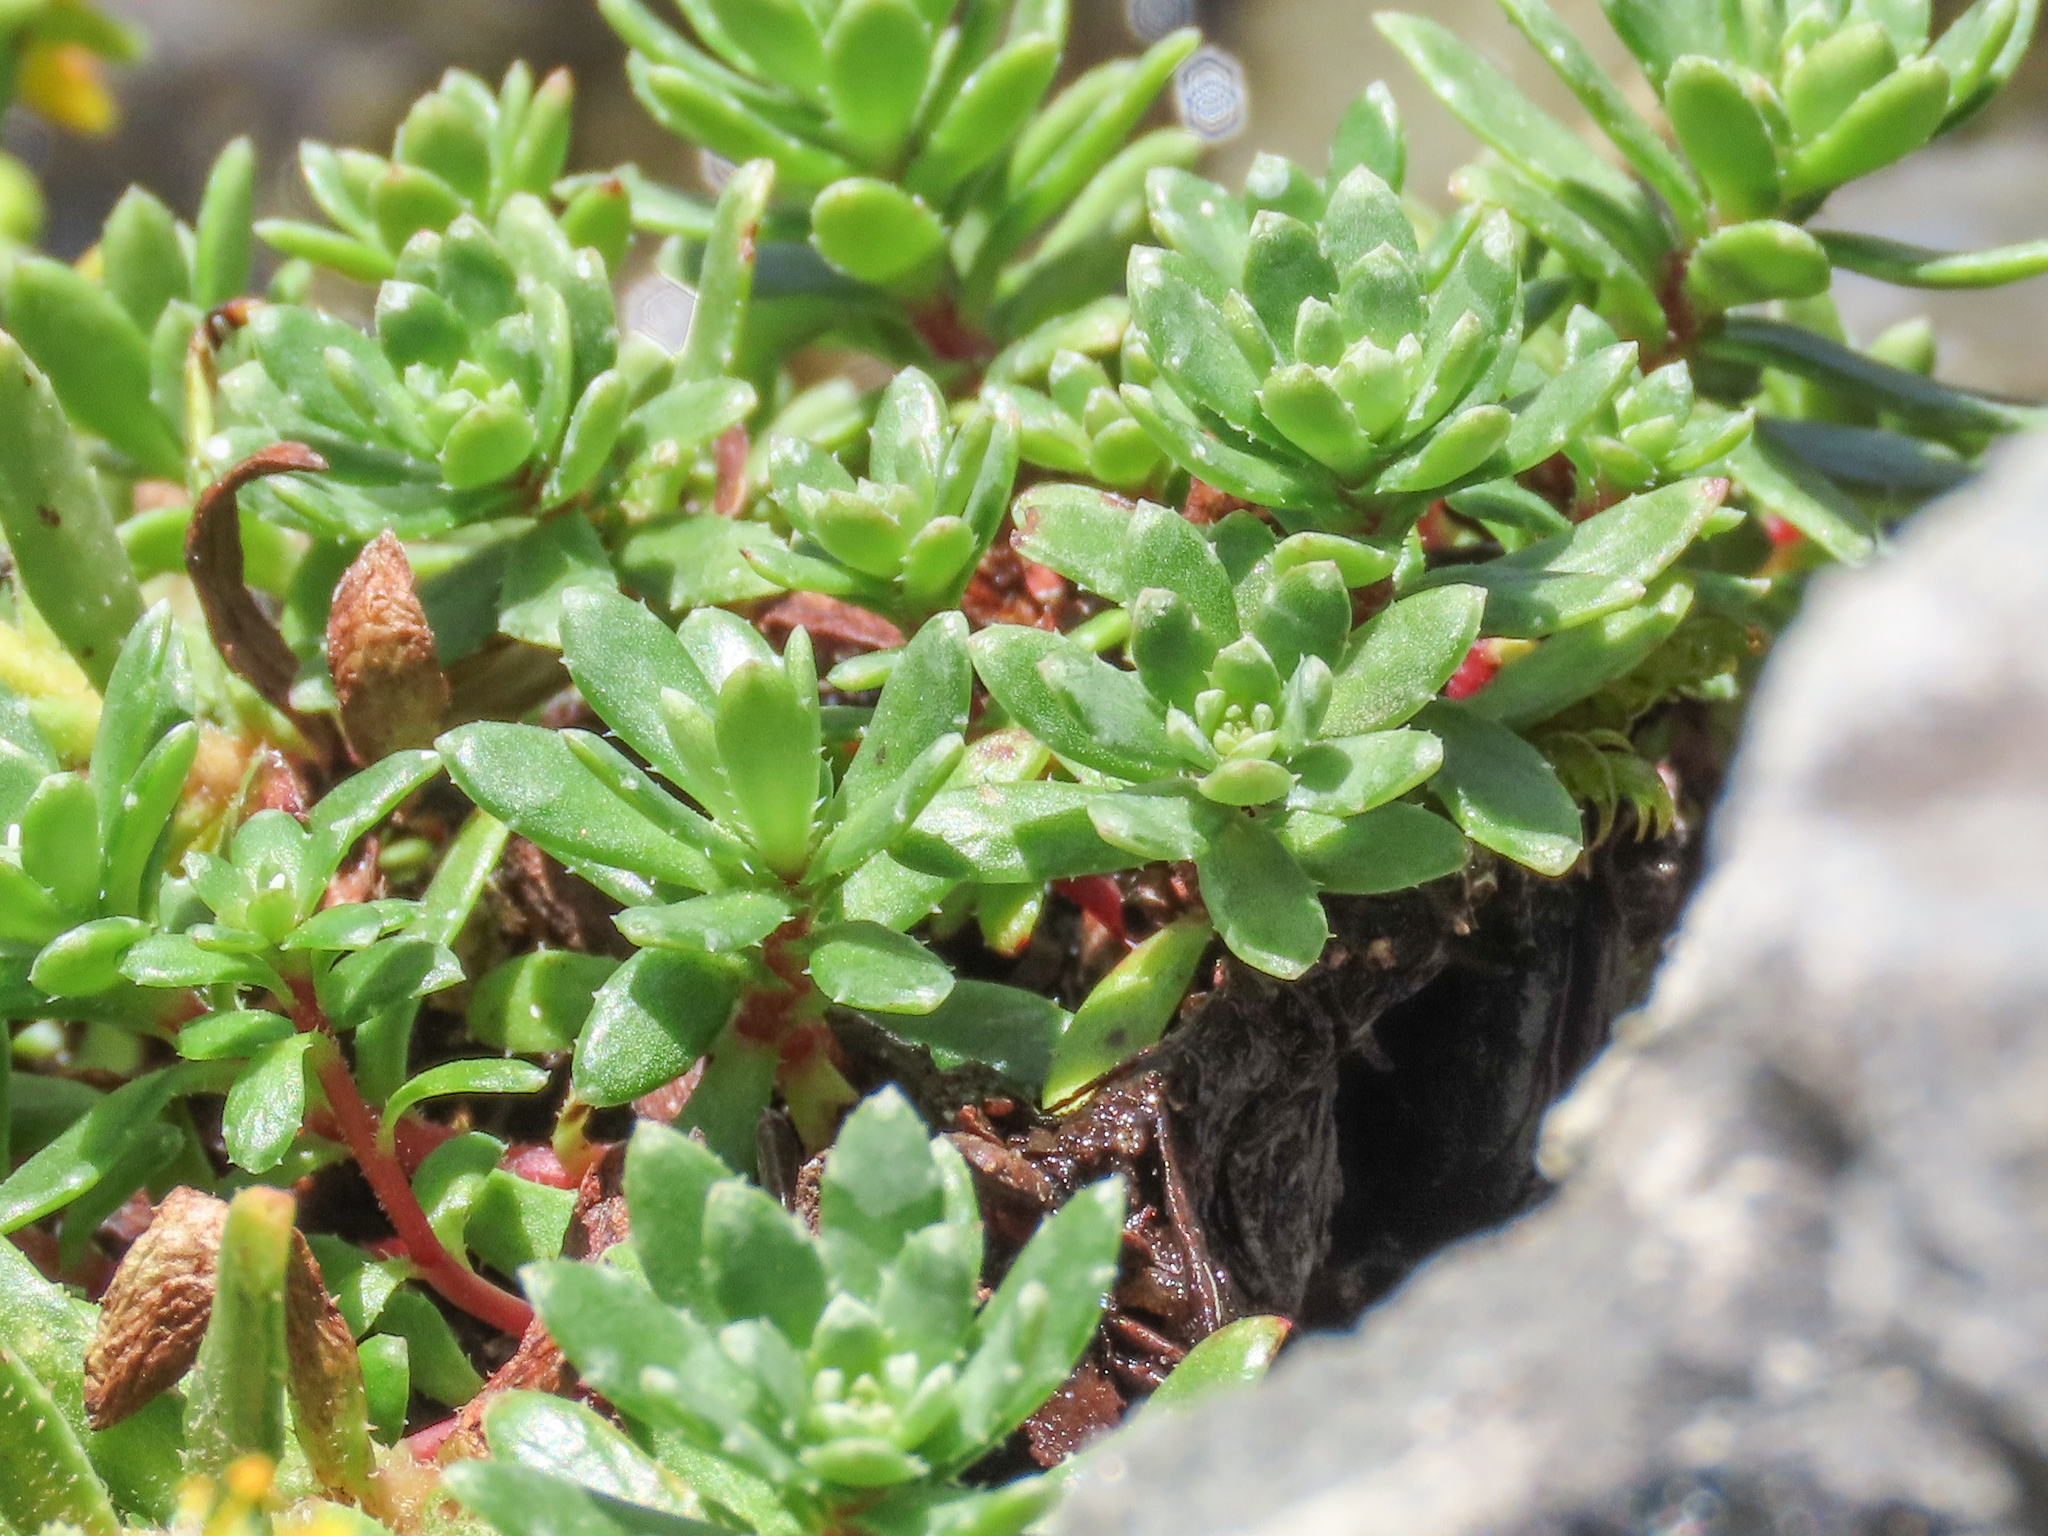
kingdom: Plantae
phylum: Tracheophyta
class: Magnoliopsida
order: Saxifragales
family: Saxifragaceae
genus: Saxifraga
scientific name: Saxifraga aizoides
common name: Yellow mountain saxifrage
